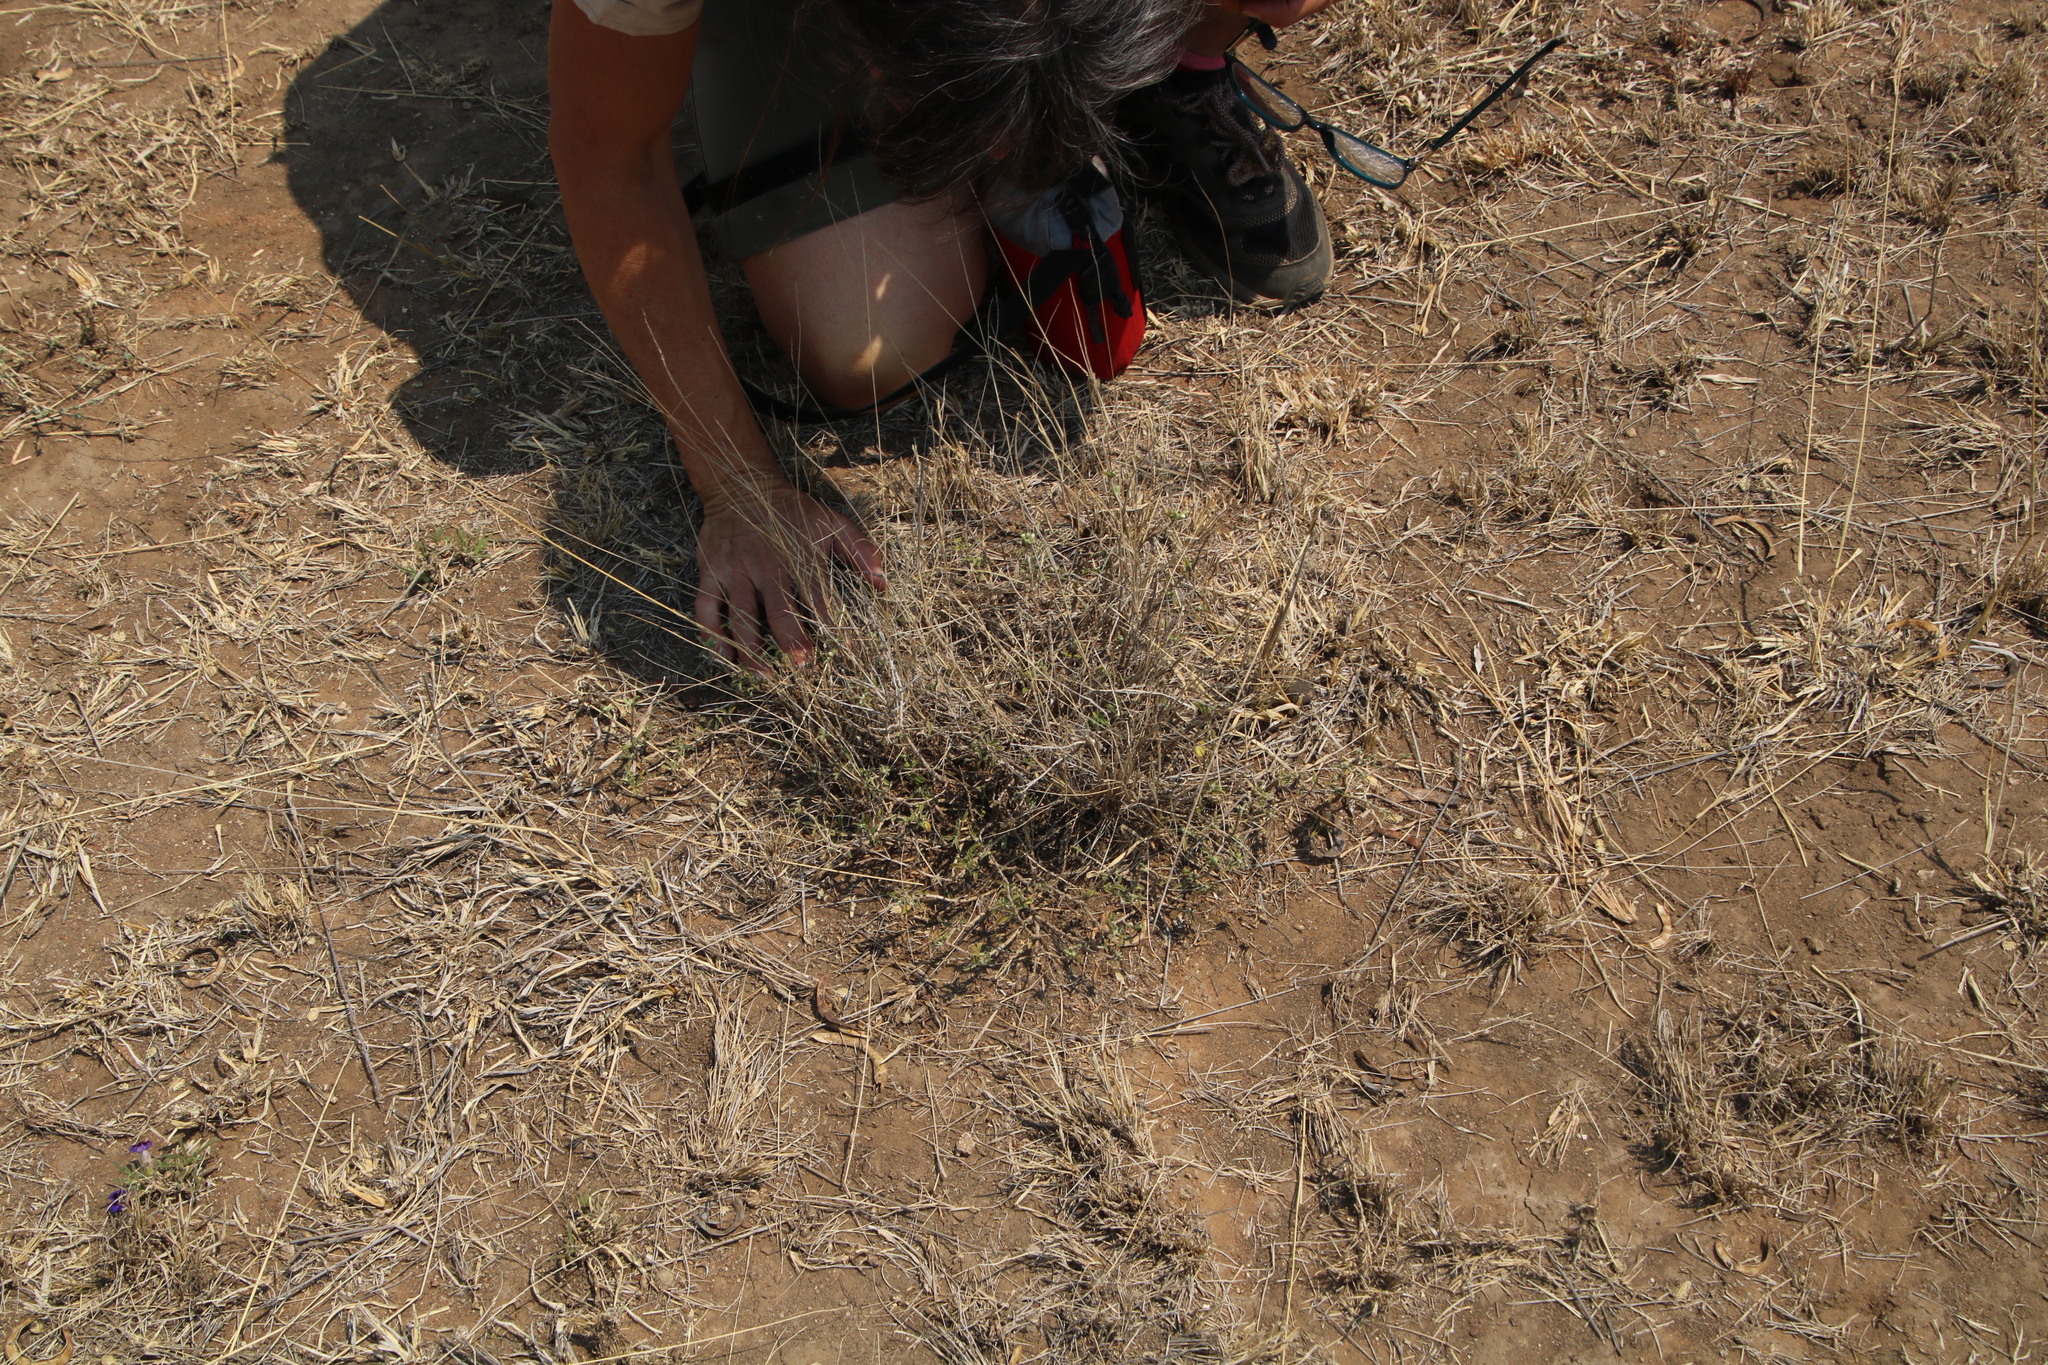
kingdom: Plantae
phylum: Tracheophyta
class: Magnoliopsida
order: Lamiales
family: Lamiaceae
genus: Leucas
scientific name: Leucas capensis
